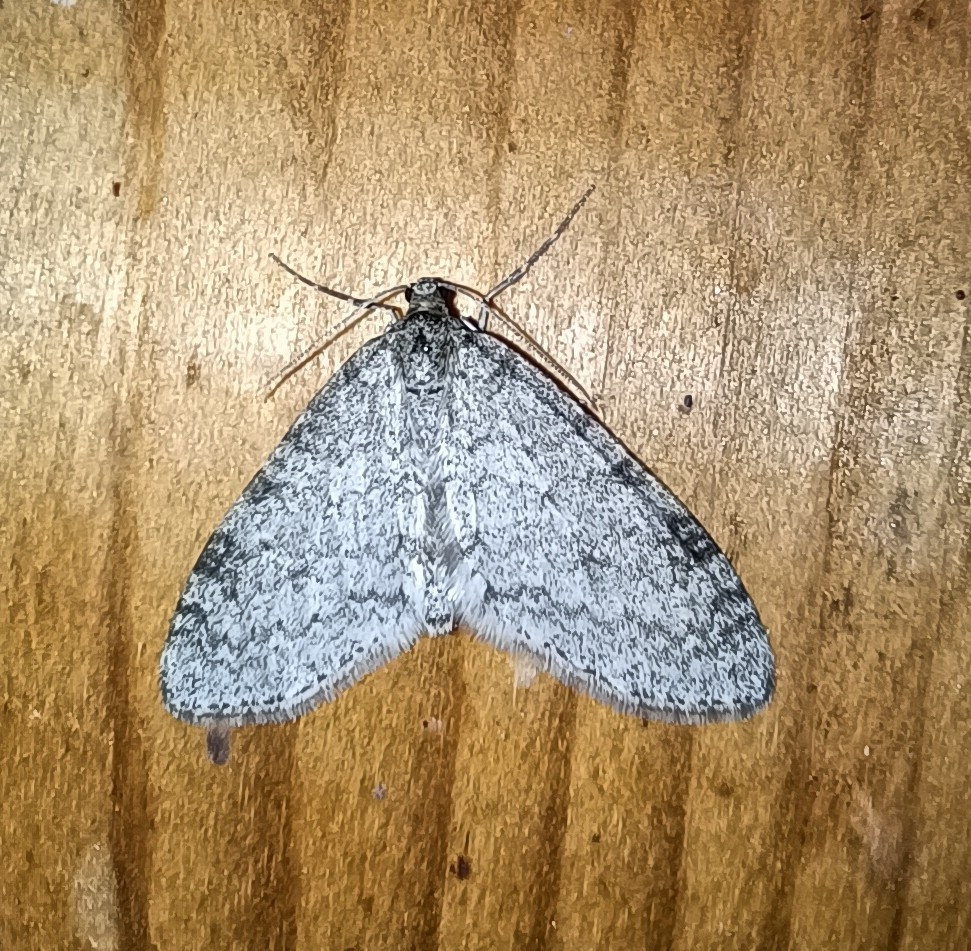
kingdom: Animalia
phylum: Arthropoda
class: Insecta
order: Lepidoptera
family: Geometridae
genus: Trichopteryx
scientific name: Trichopteryx carpinata
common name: Early tooth-striped
